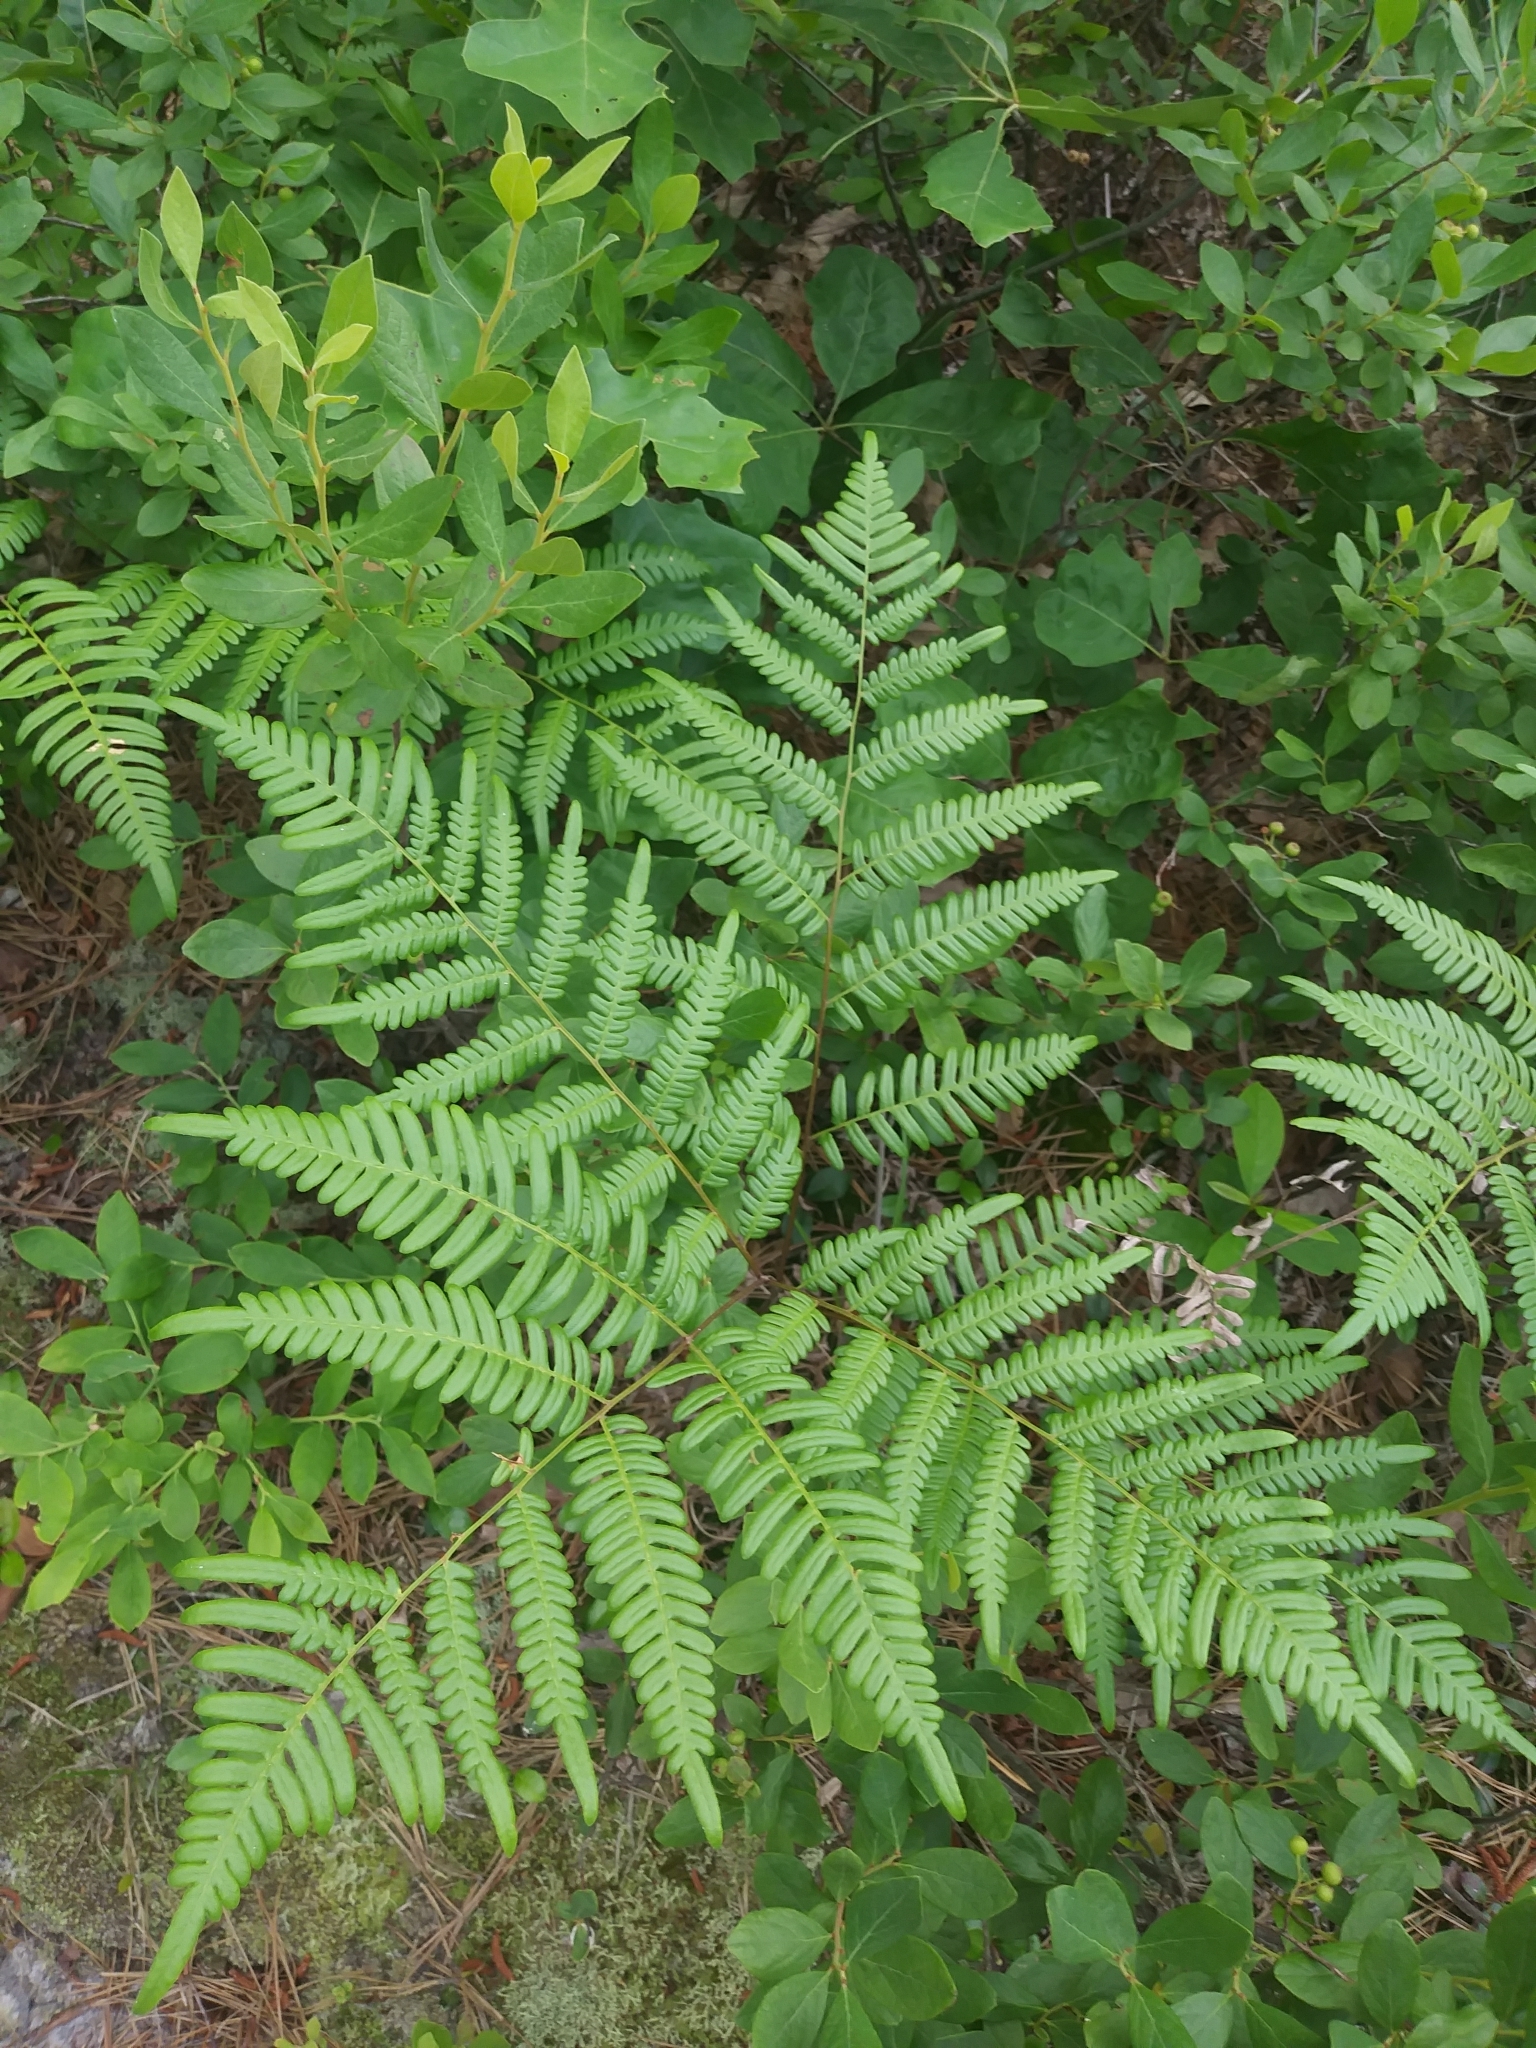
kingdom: Plantae
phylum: Tracheophyta
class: Polypodiopsida
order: Polypodiales
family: Dennstaedtiaceae
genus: Pteridium
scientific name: Pteridium aquilinum
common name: Bracken
